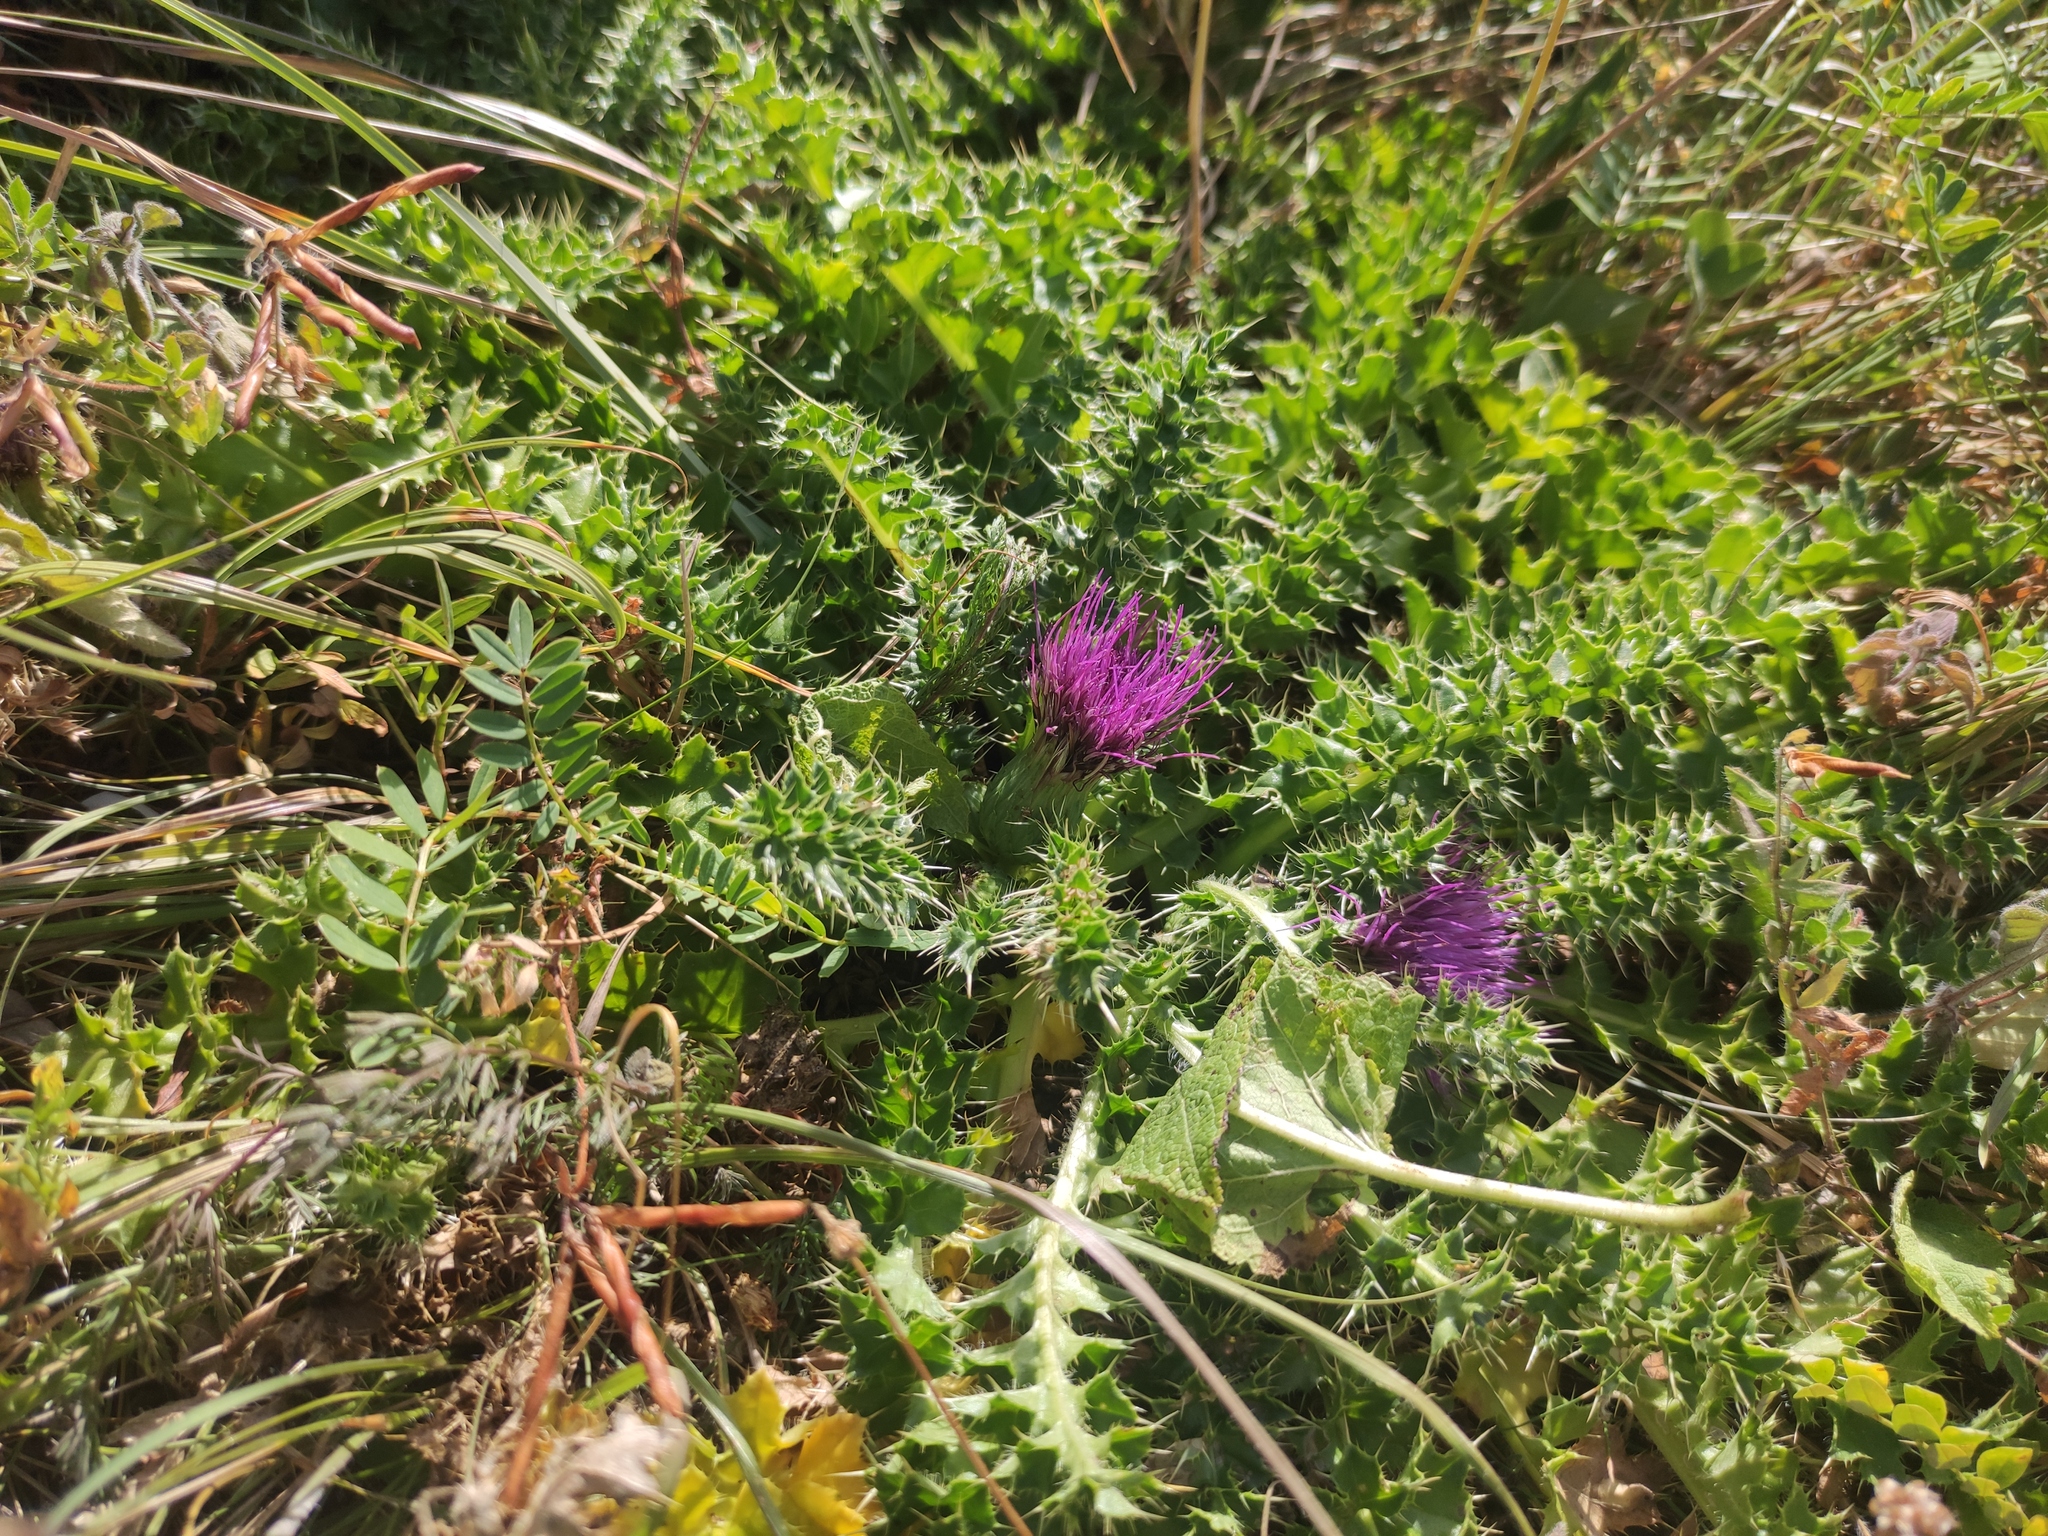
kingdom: Plantae
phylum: Tracheophyta
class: Magnoliopsida
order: Asterales
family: Asteraceae
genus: Cirsium
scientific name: Cirsium acaulon
